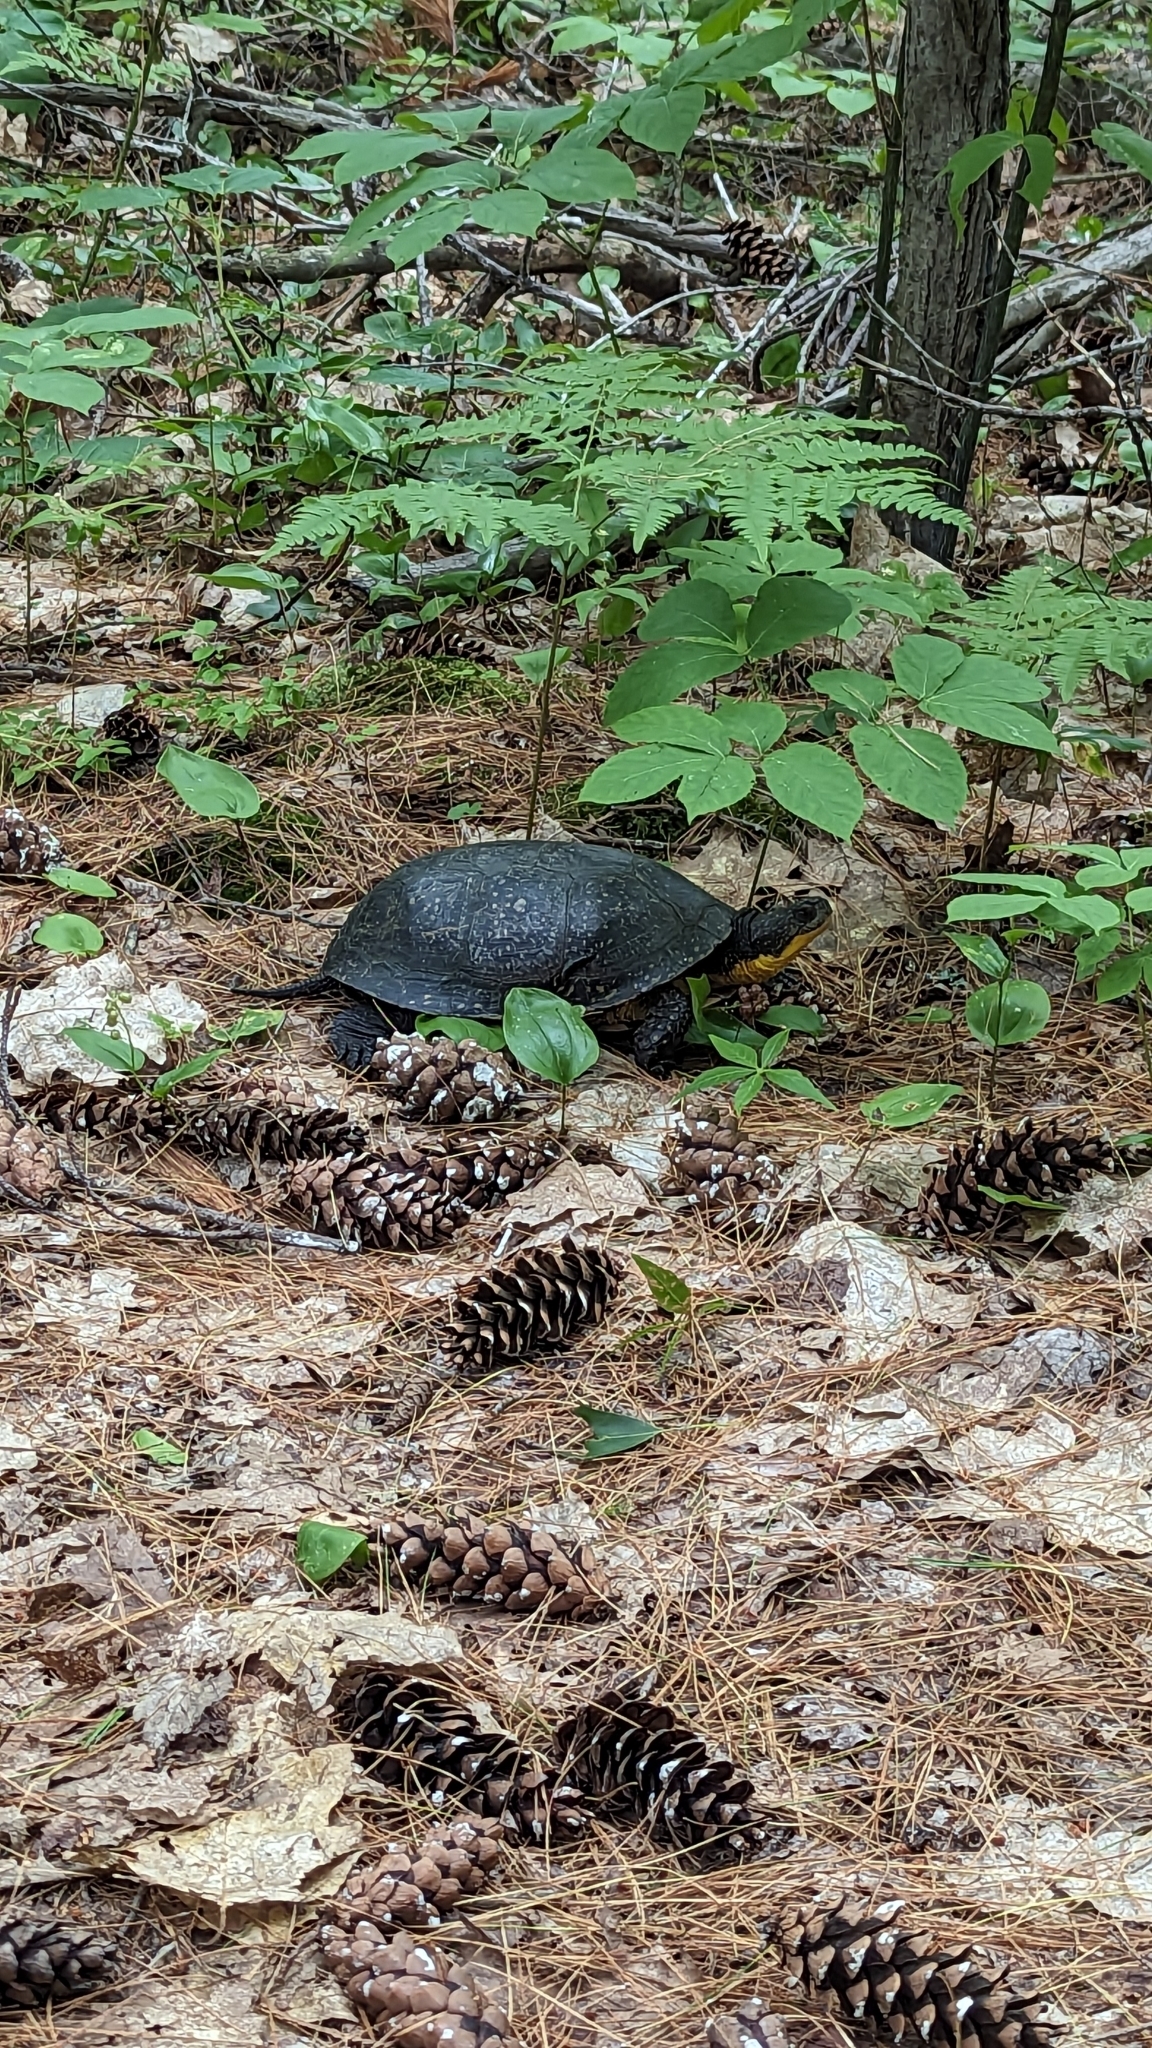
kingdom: Animalia
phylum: Chordata
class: Testudines
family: Emydidae
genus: Emys
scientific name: Emys blandingii
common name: Blanding's turtle
